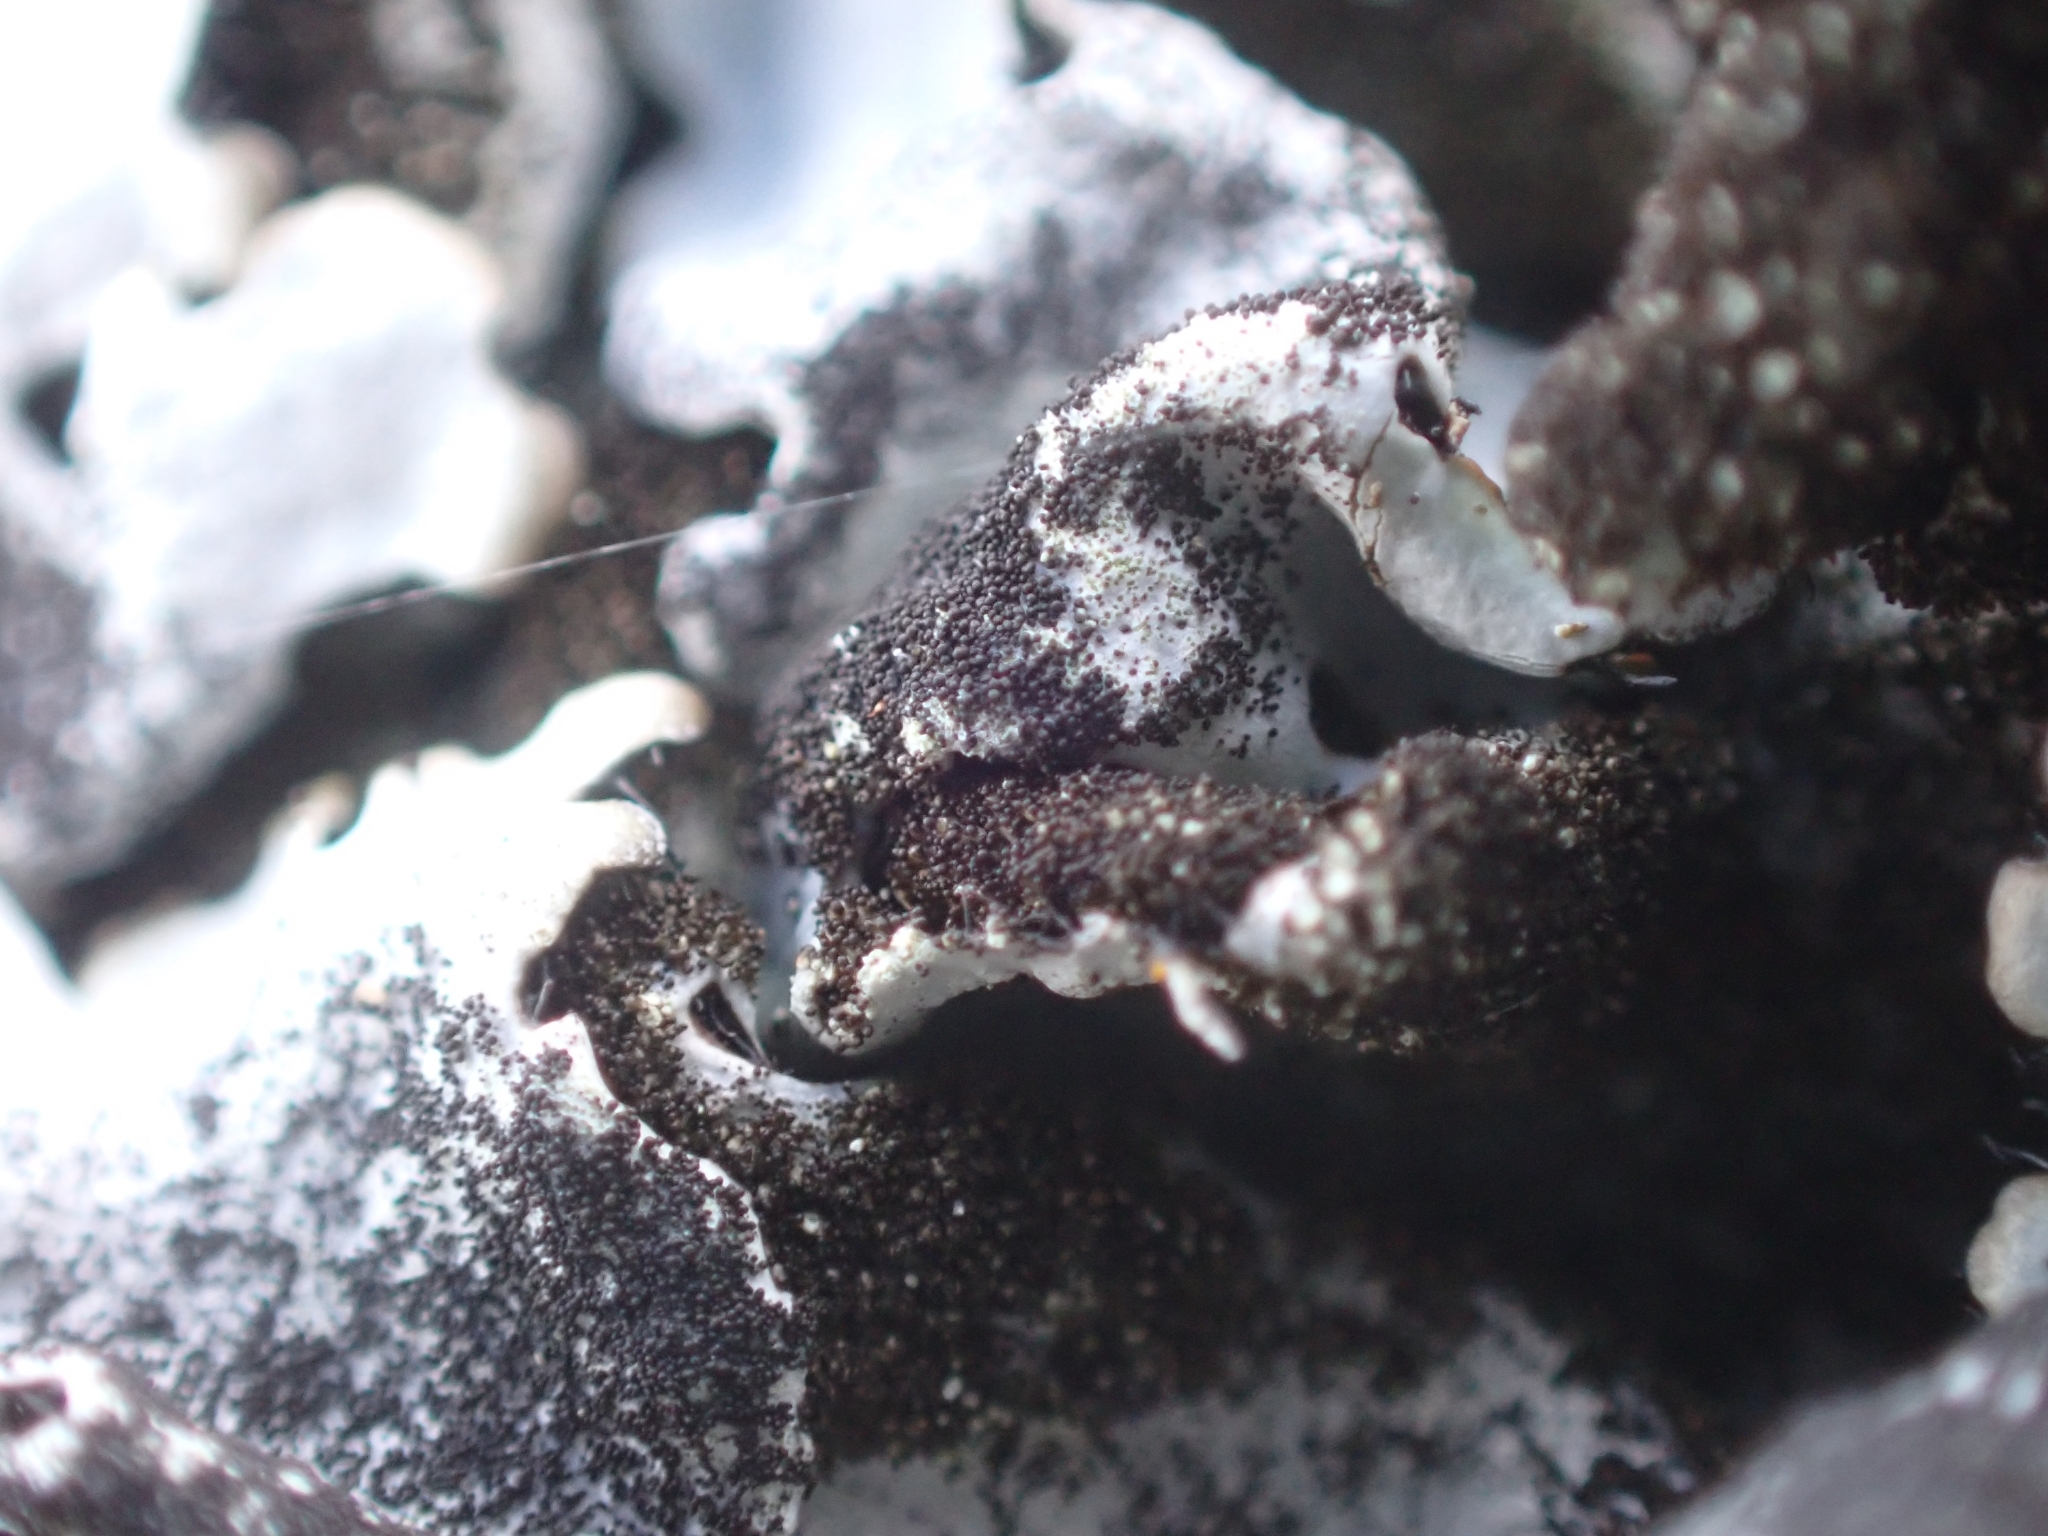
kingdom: Fungi
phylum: Ascomycota
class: Lecanoromycetes
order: Lecanorales
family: Parmeliaceae
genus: Parmelina
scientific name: Parmelina tiliacea
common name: Linden shield lichen
